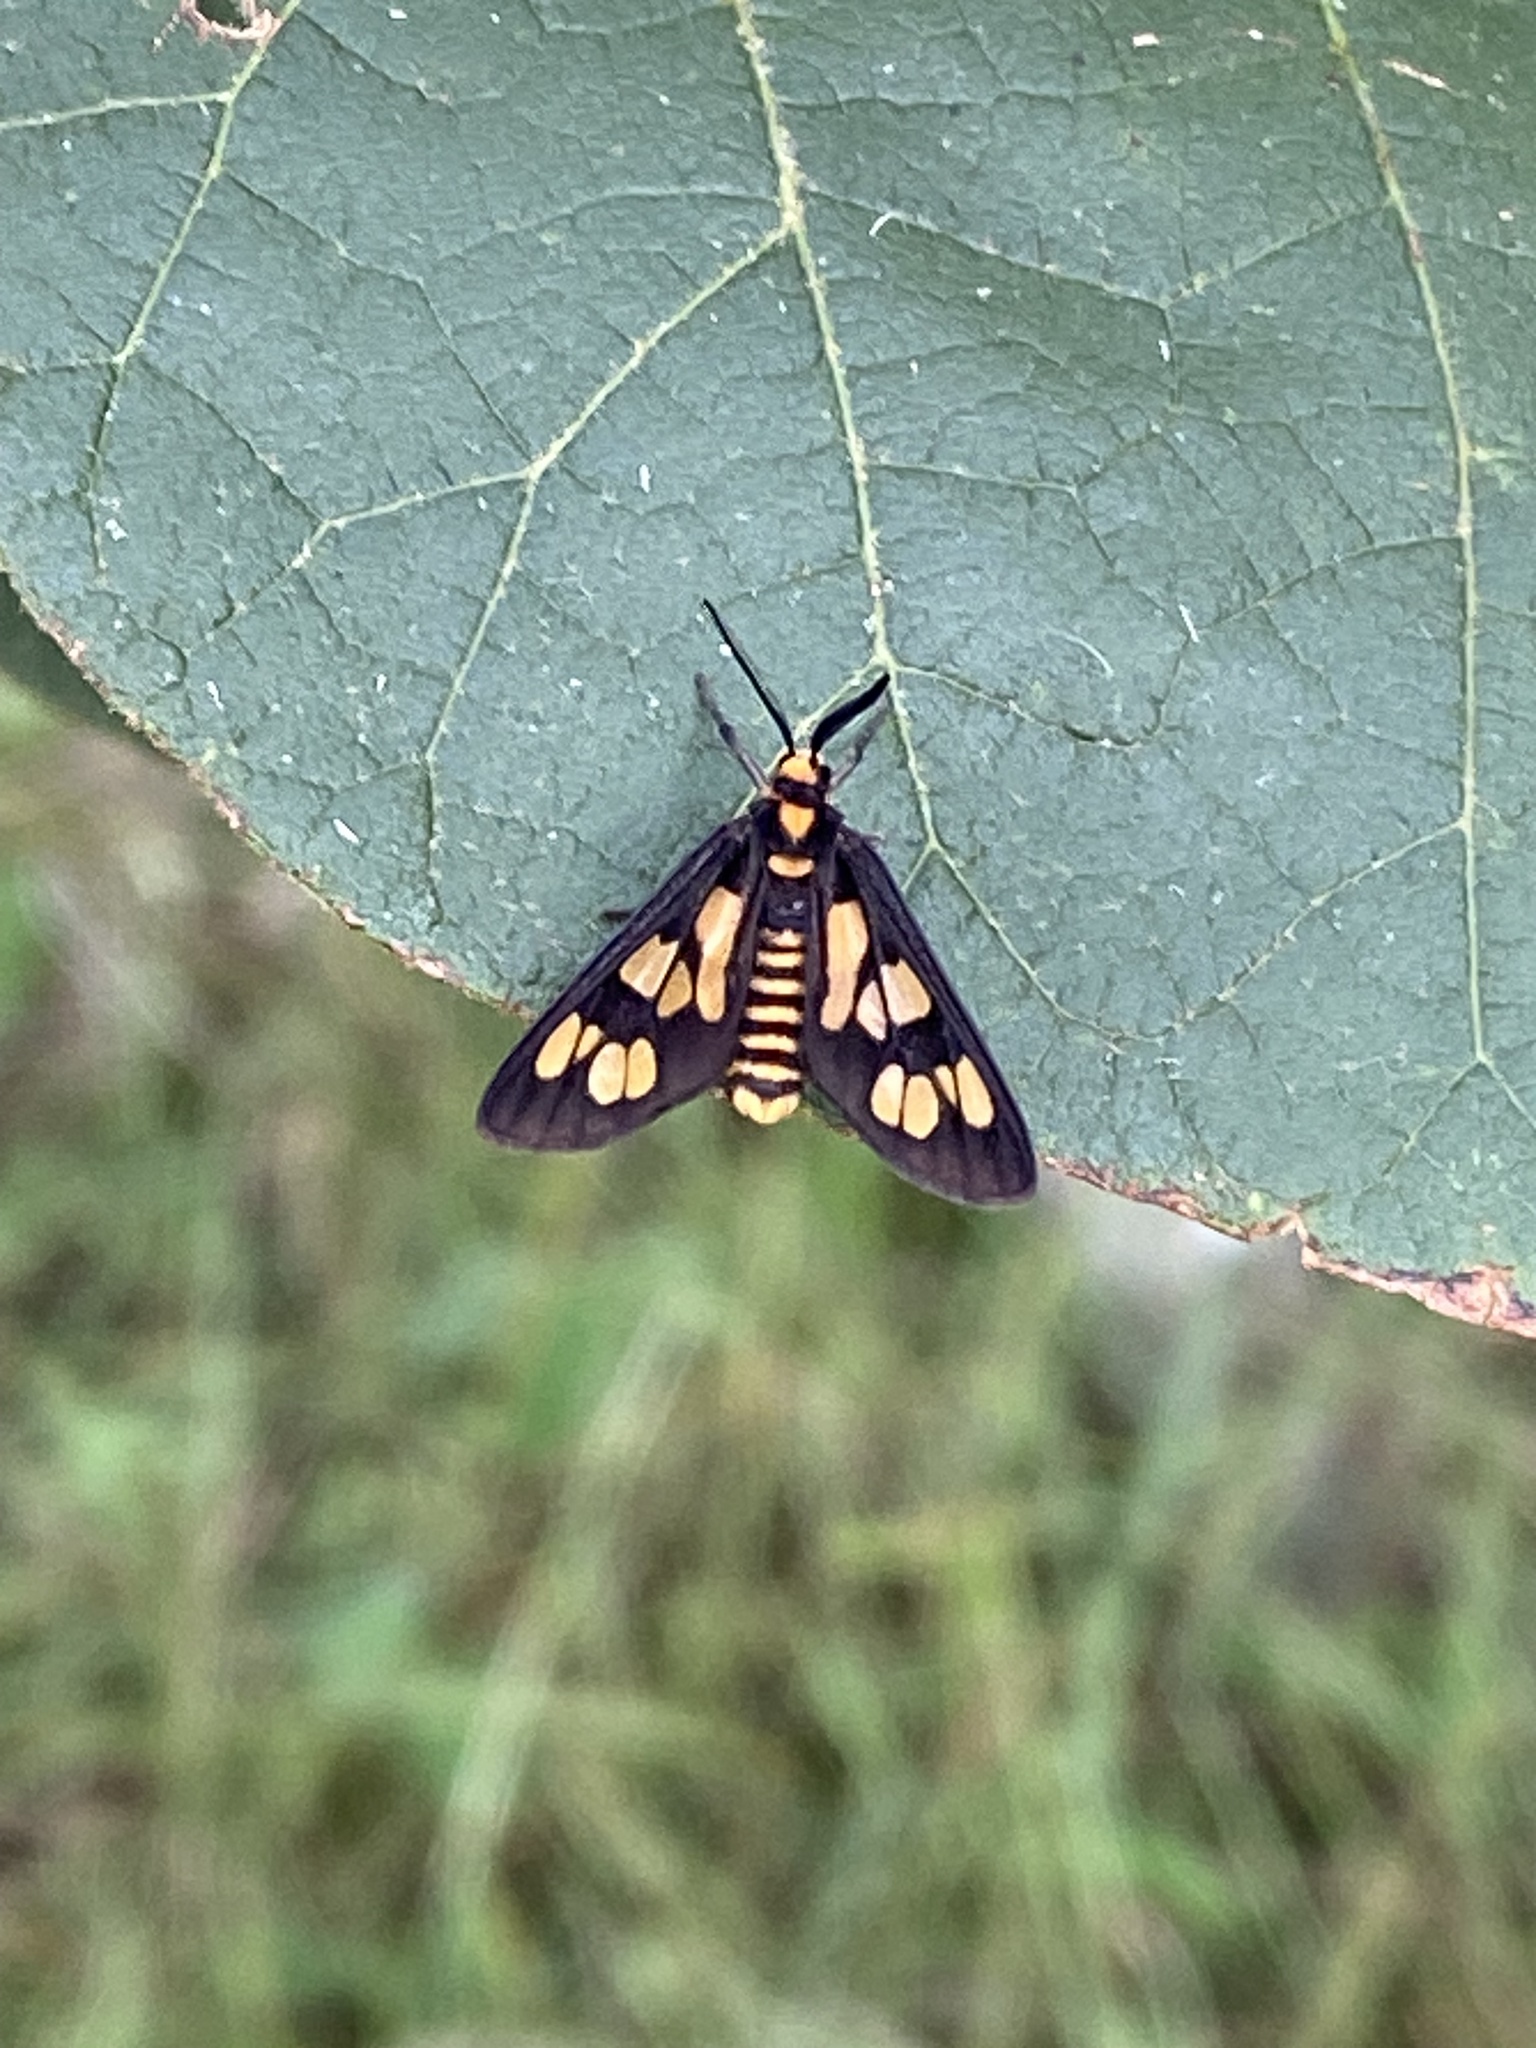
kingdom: Animalia
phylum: Arthropoda
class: Insecta
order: Lepidoptera
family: Erebidae
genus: Eressa
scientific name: Eressa geographica
